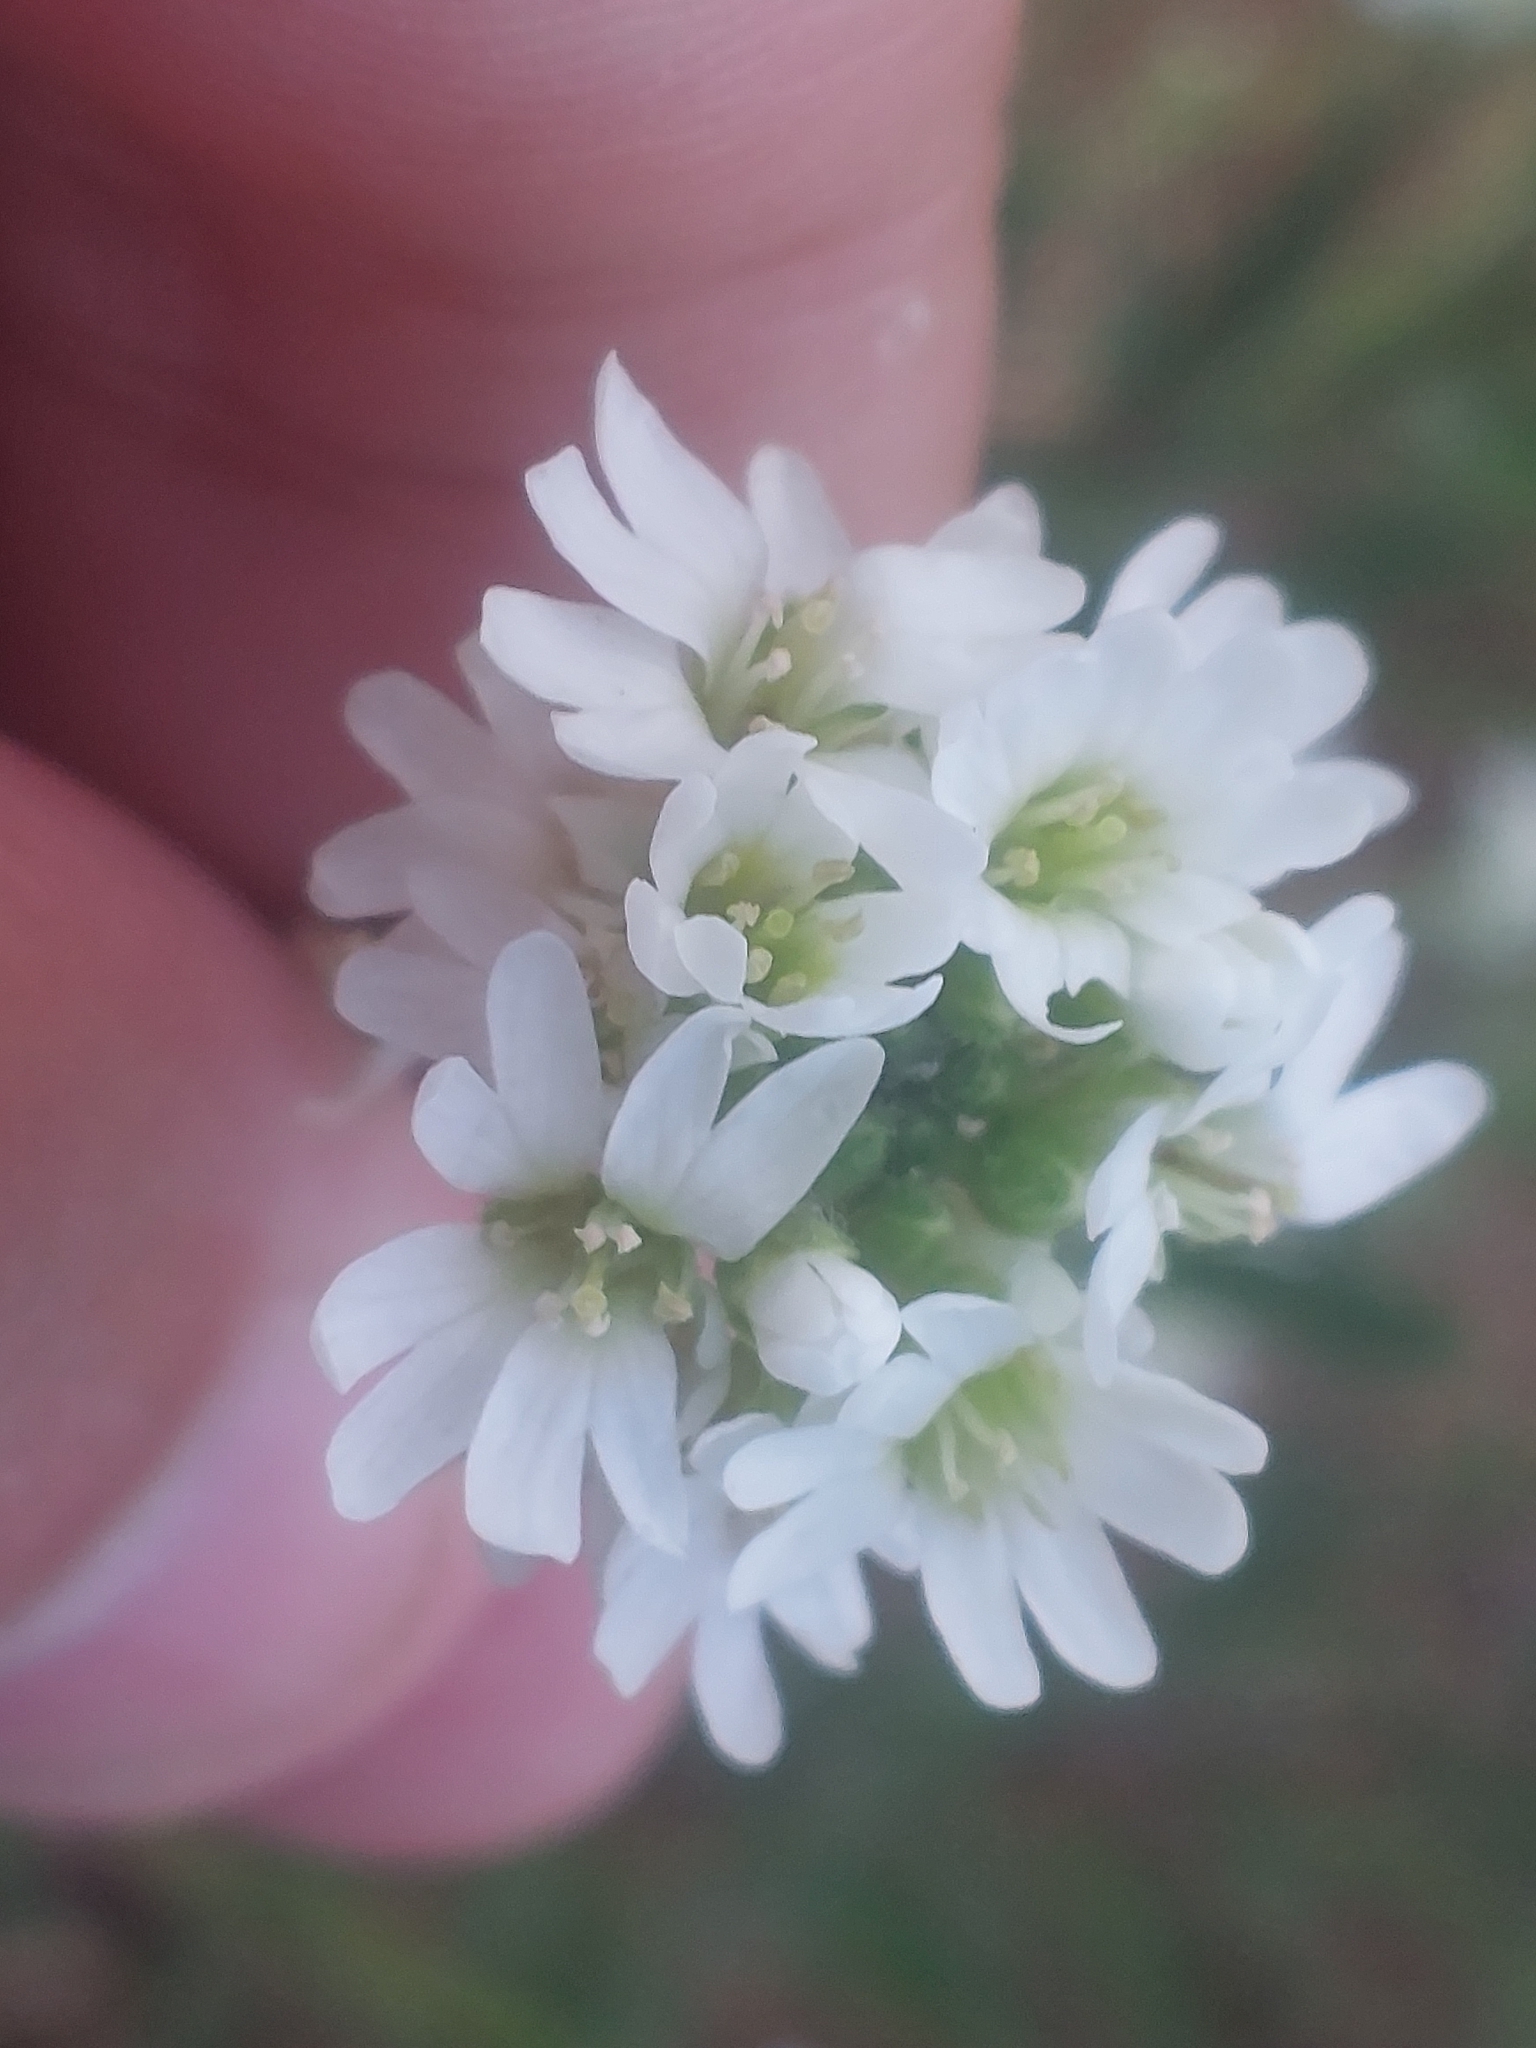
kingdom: Plantae
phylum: Tracheophyta
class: Magnoliopsida
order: Brassicales
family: Brassicaceae
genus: Berteroa
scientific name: Berteroa incana
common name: Hoary alison
